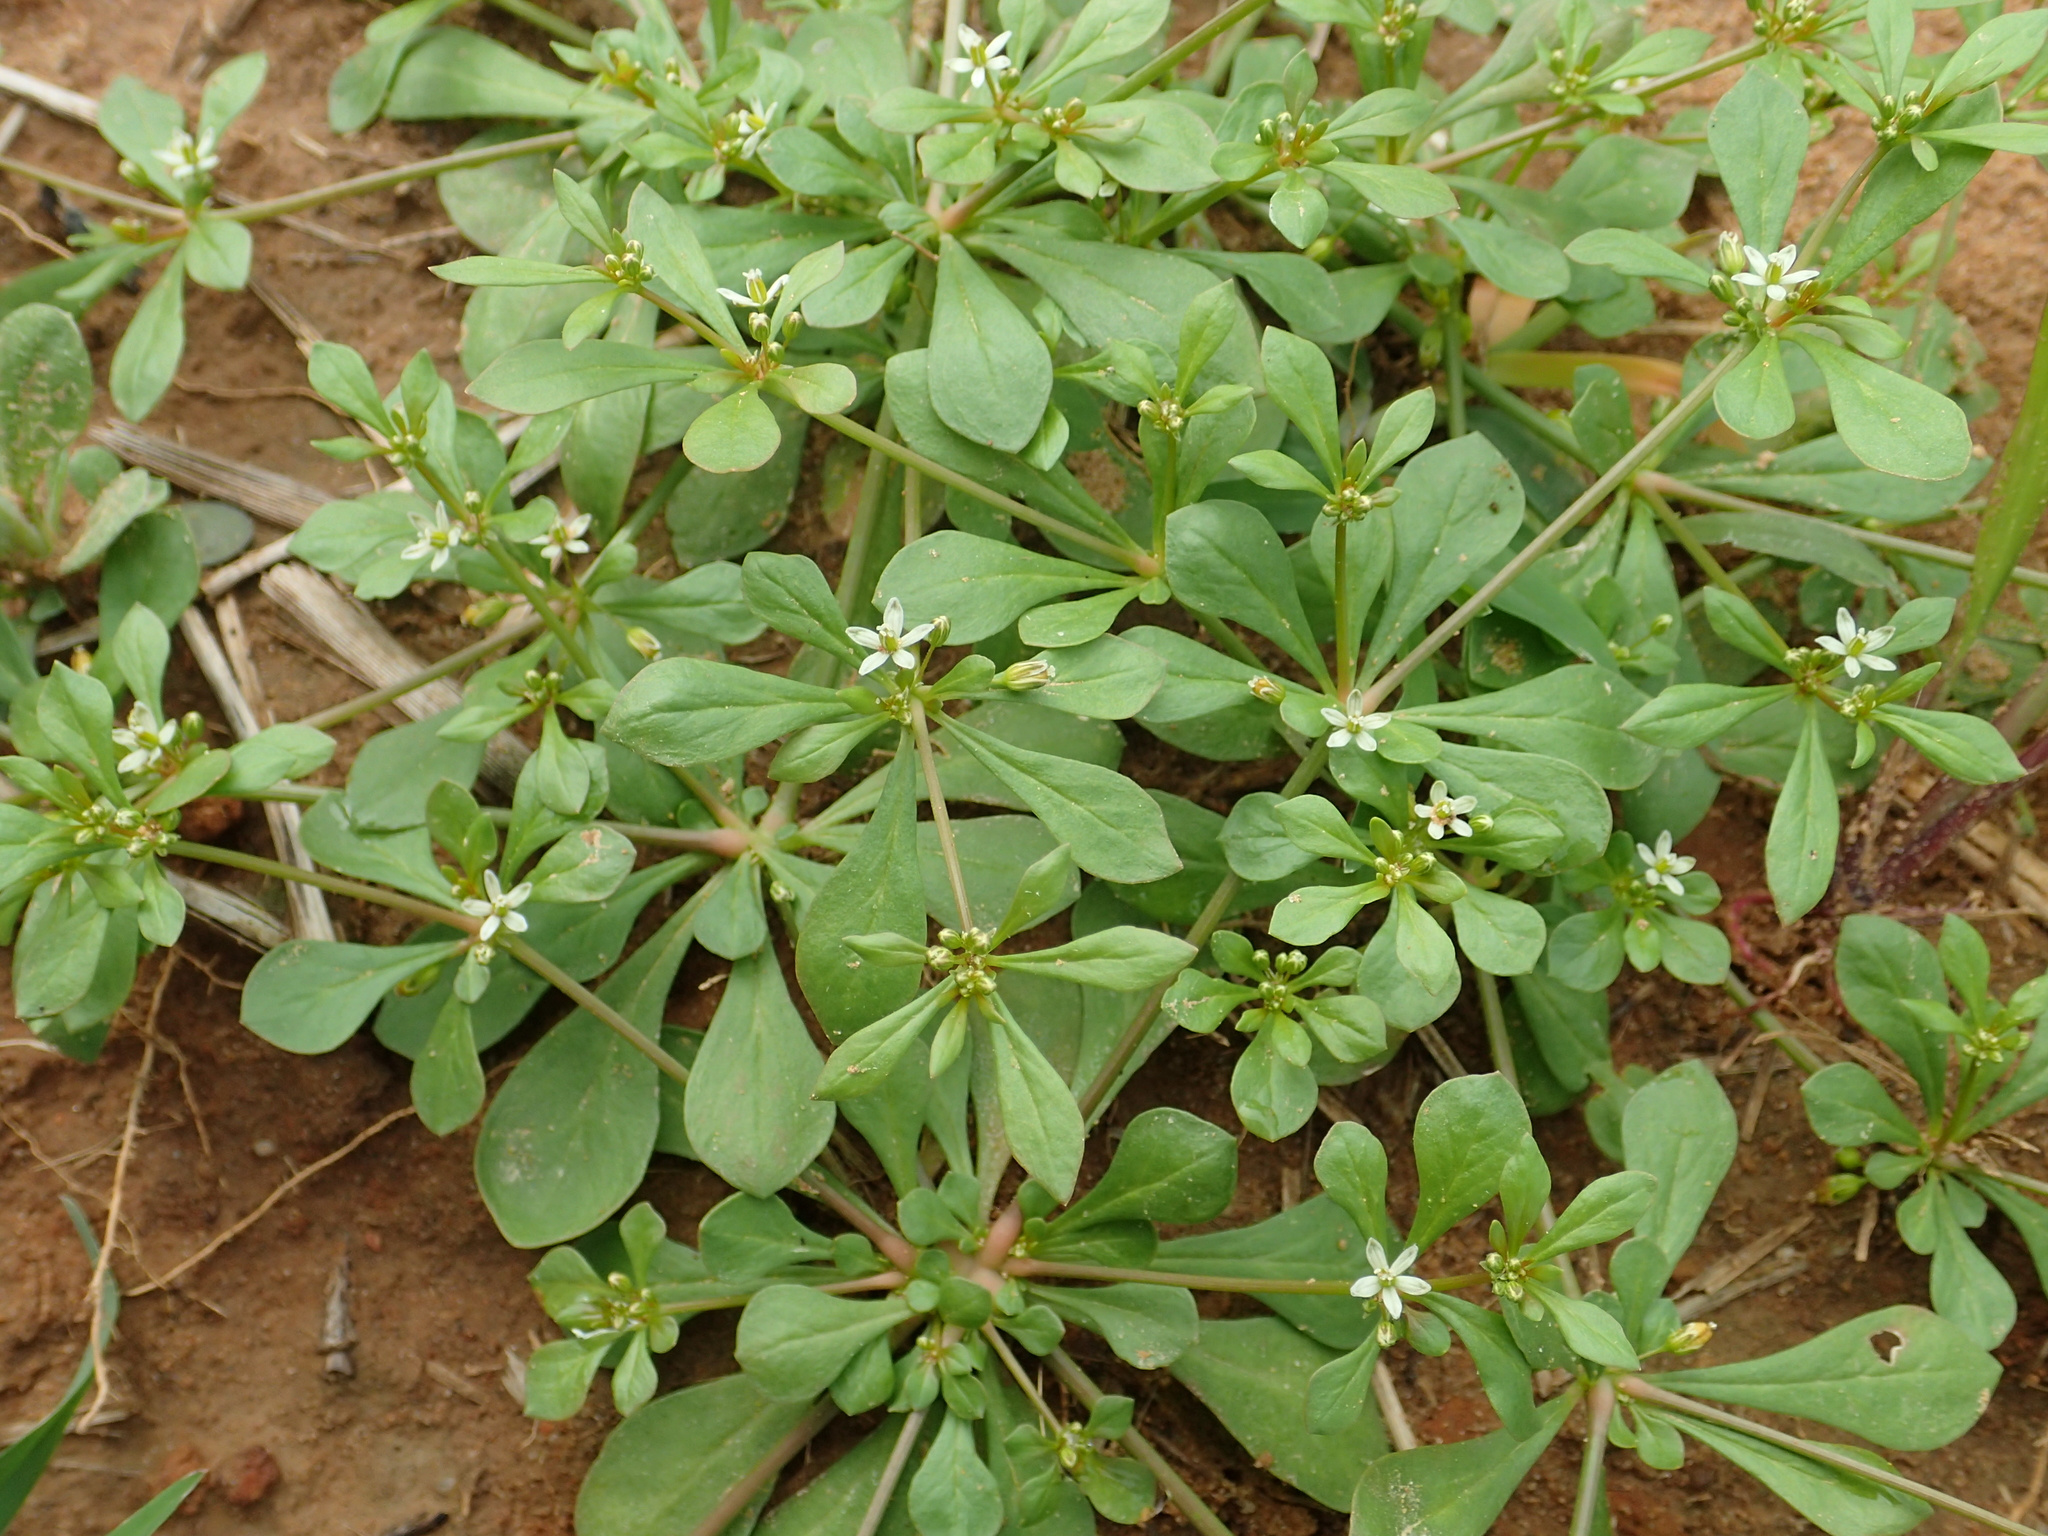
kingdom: Plantae
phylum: Tracheophyta
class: Magnoliopsida
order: Caryophyllales
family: Molluginaceae
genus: Mollugo
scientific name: Mollugo verticillata
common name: Green carpetweed
